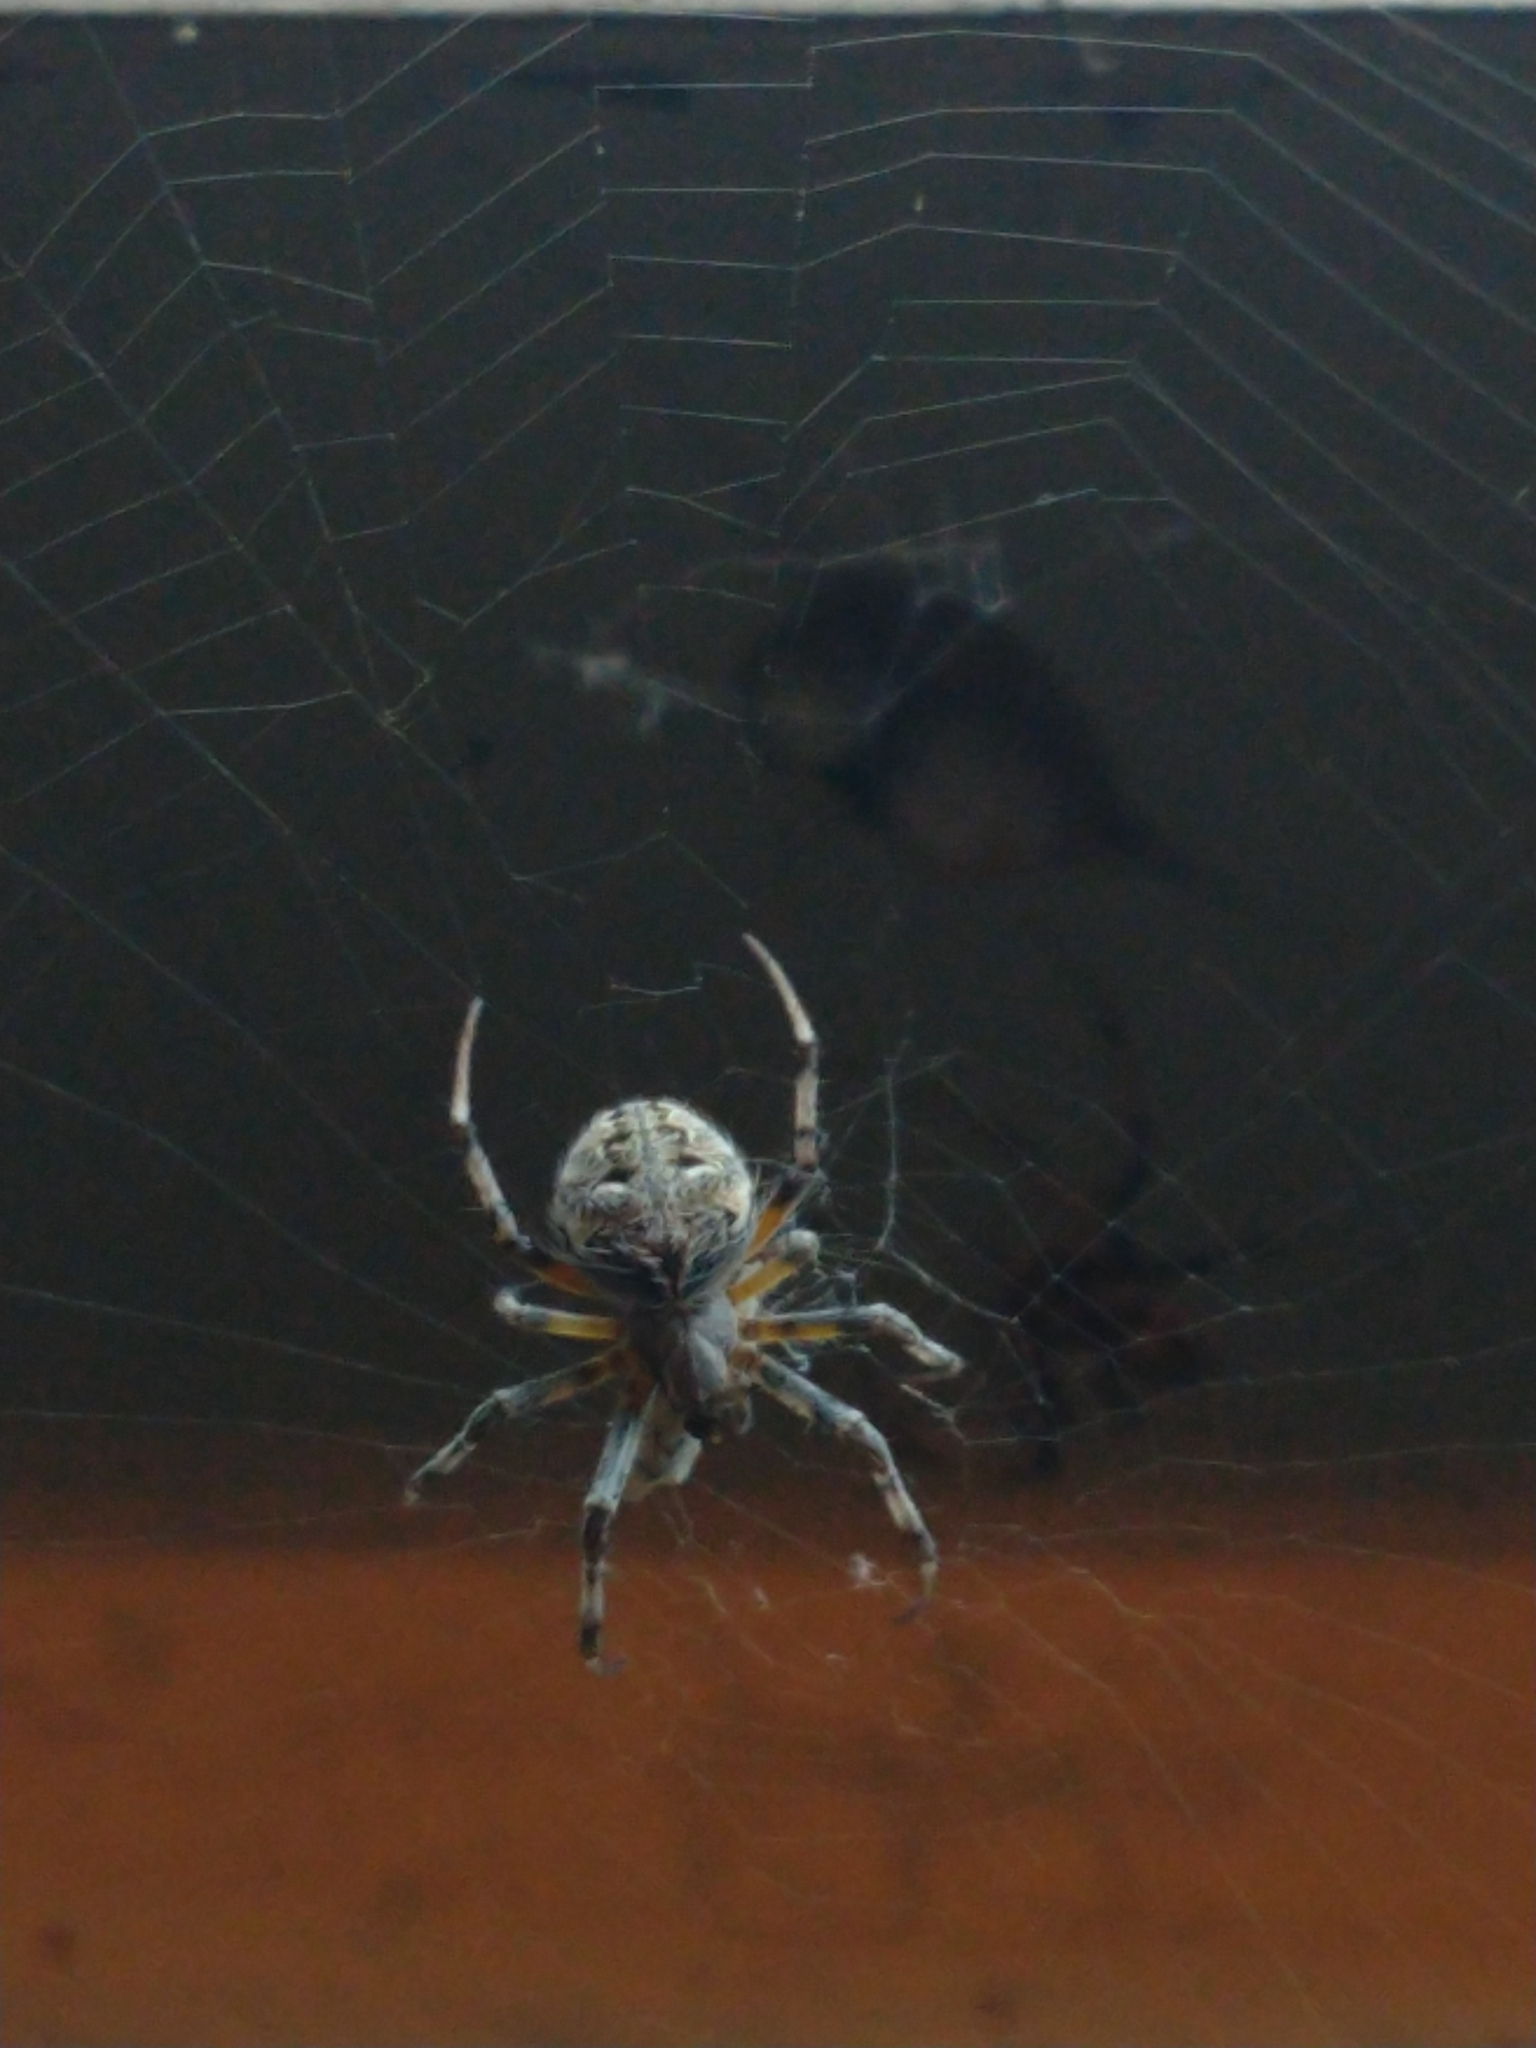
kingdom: Animalia
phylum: Arthropoda
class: Arachnida
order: Araneae
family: Araneidae
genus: Metepeira
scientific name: Metepeira
